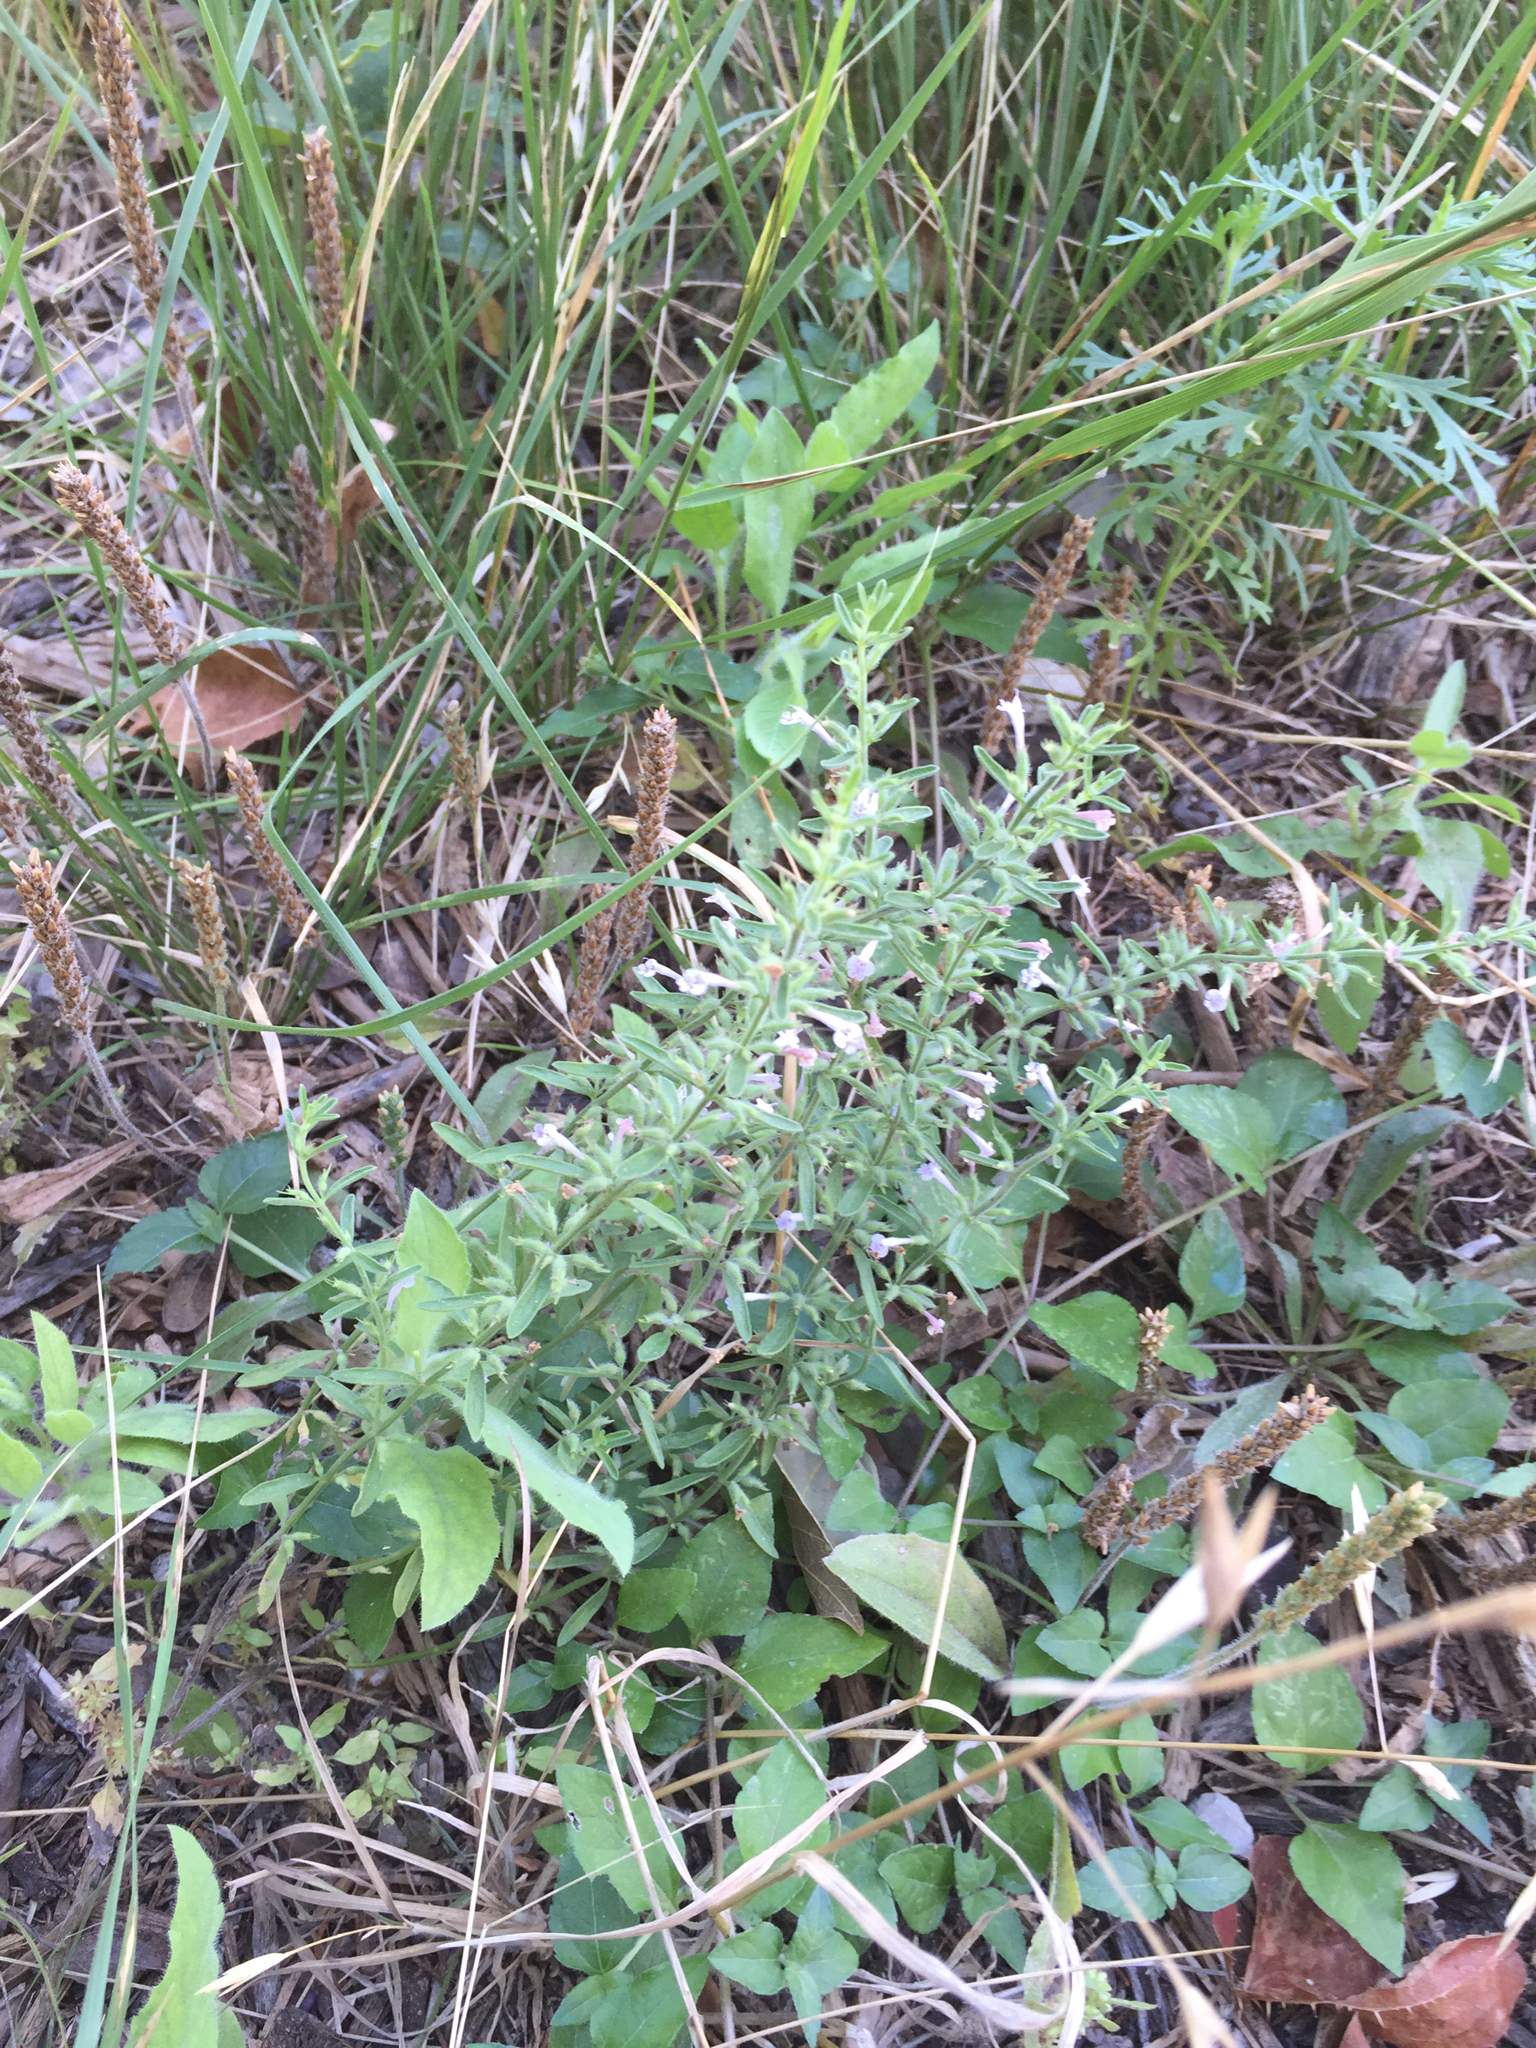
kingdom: Plantae
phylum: Tracheophyta
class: Magnoliopsida
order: Lamiales
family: Lamiaceae
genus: Hedeoma
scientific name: Hedeoma reverchonii
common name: Reverchon's false penny-royal
